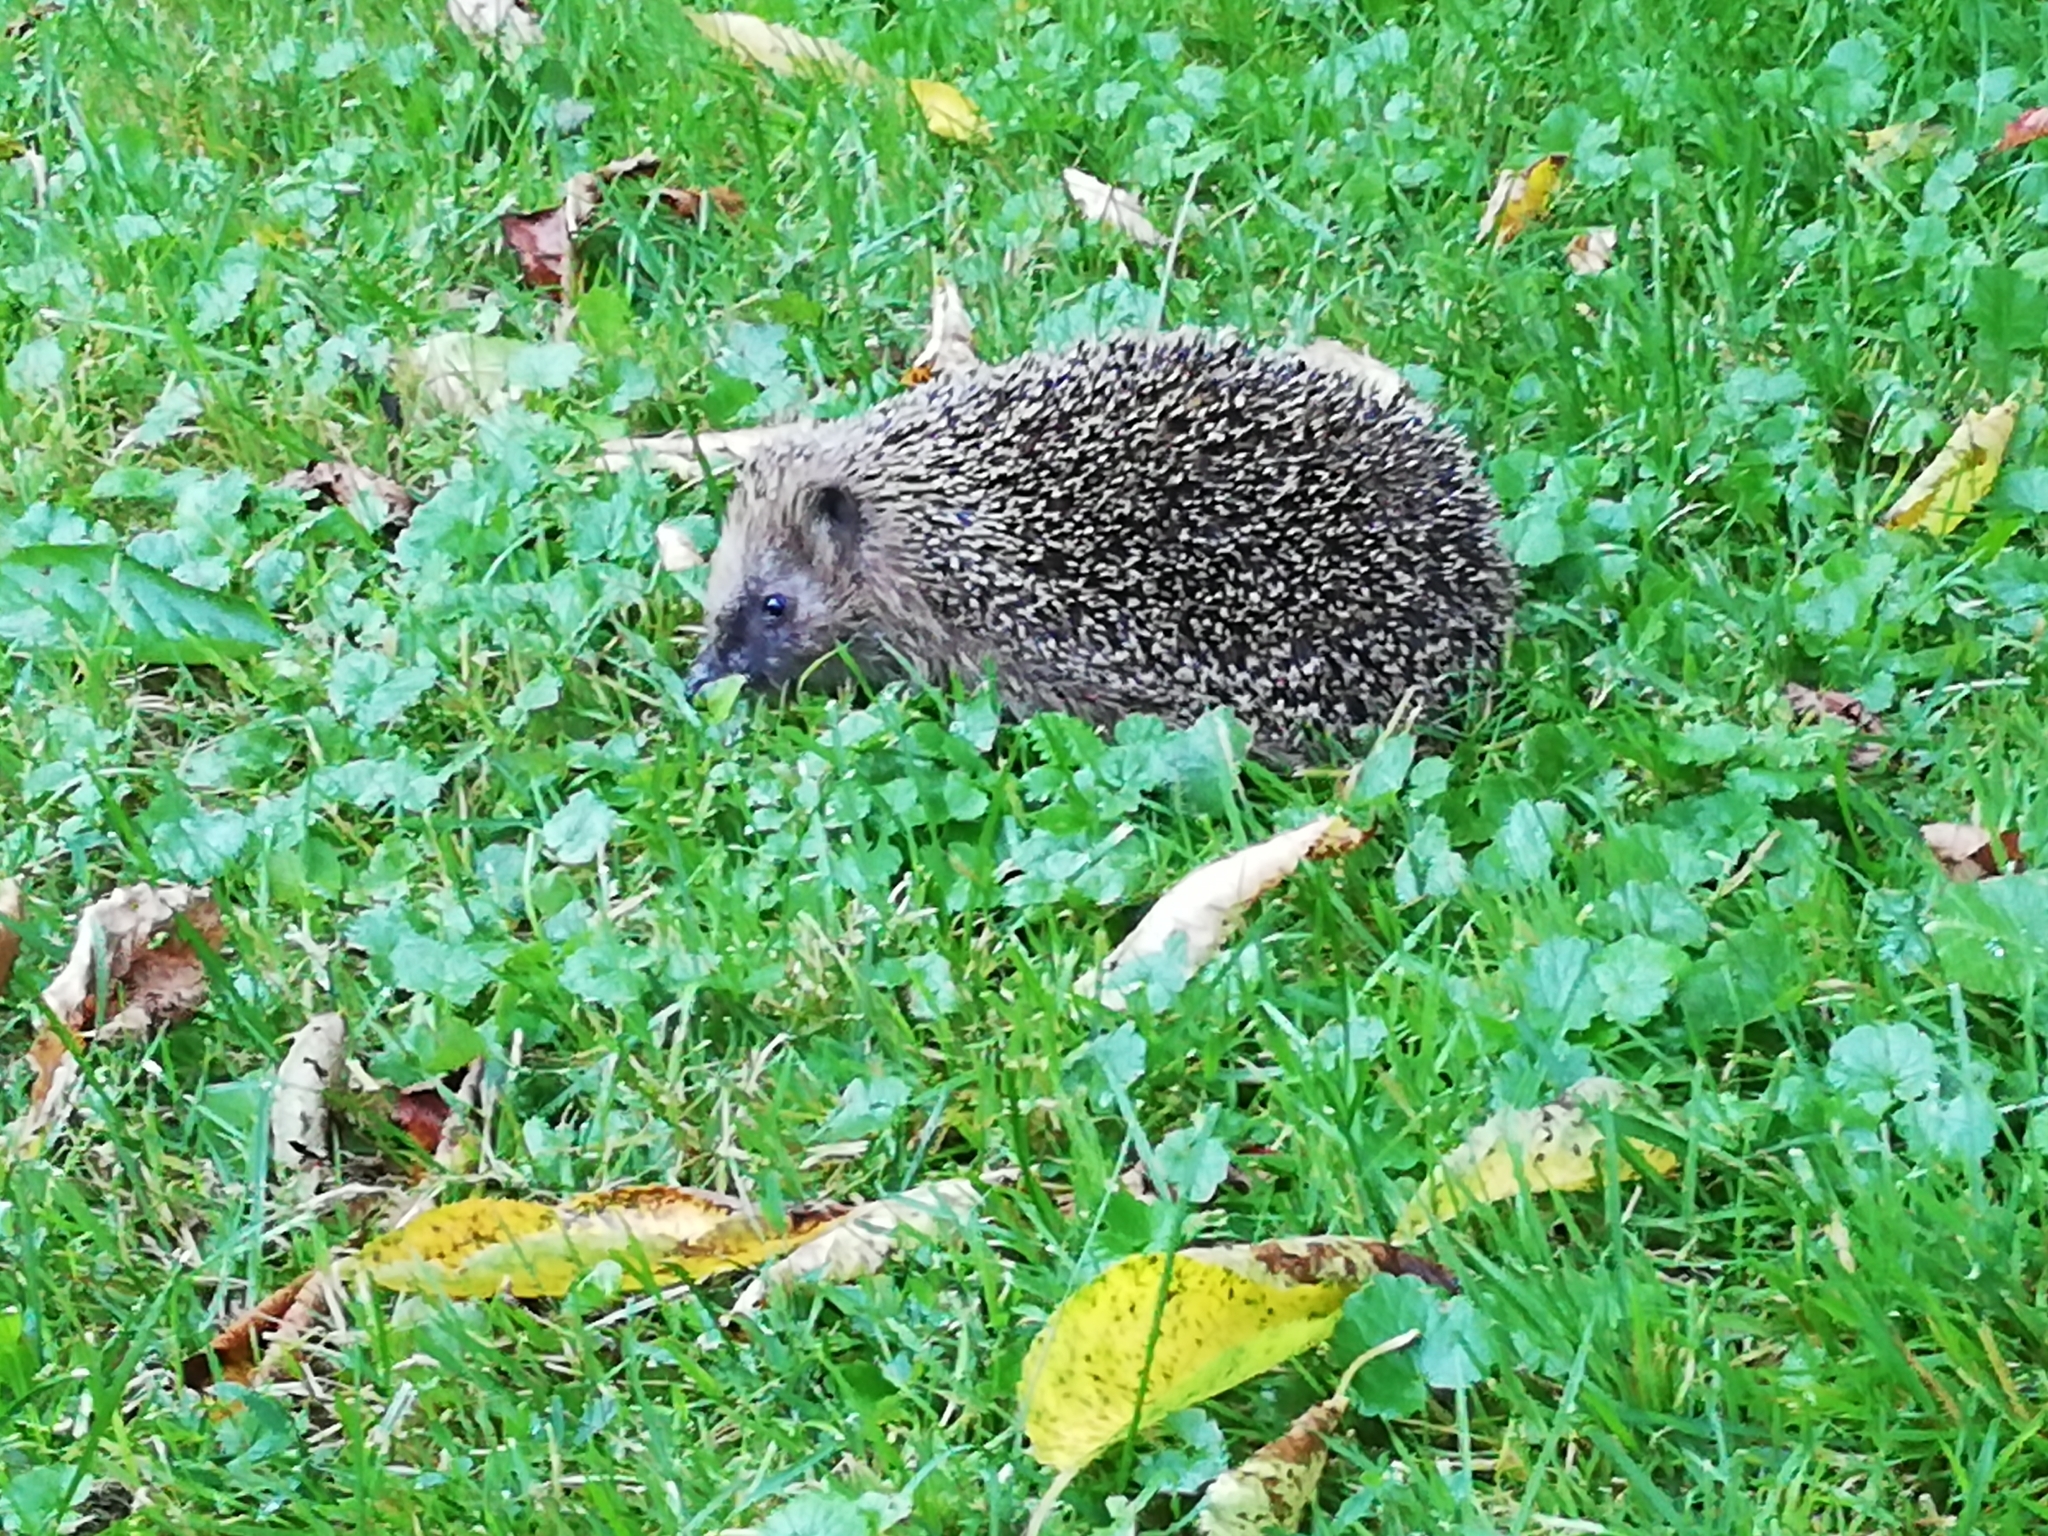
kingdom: Animalia
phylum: Chordata
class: Mammalia
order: Erinaceomorpha
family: Erinaceidae
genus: Erinaceus
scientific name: Erinaceus europaeus
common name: West european hedgehog
